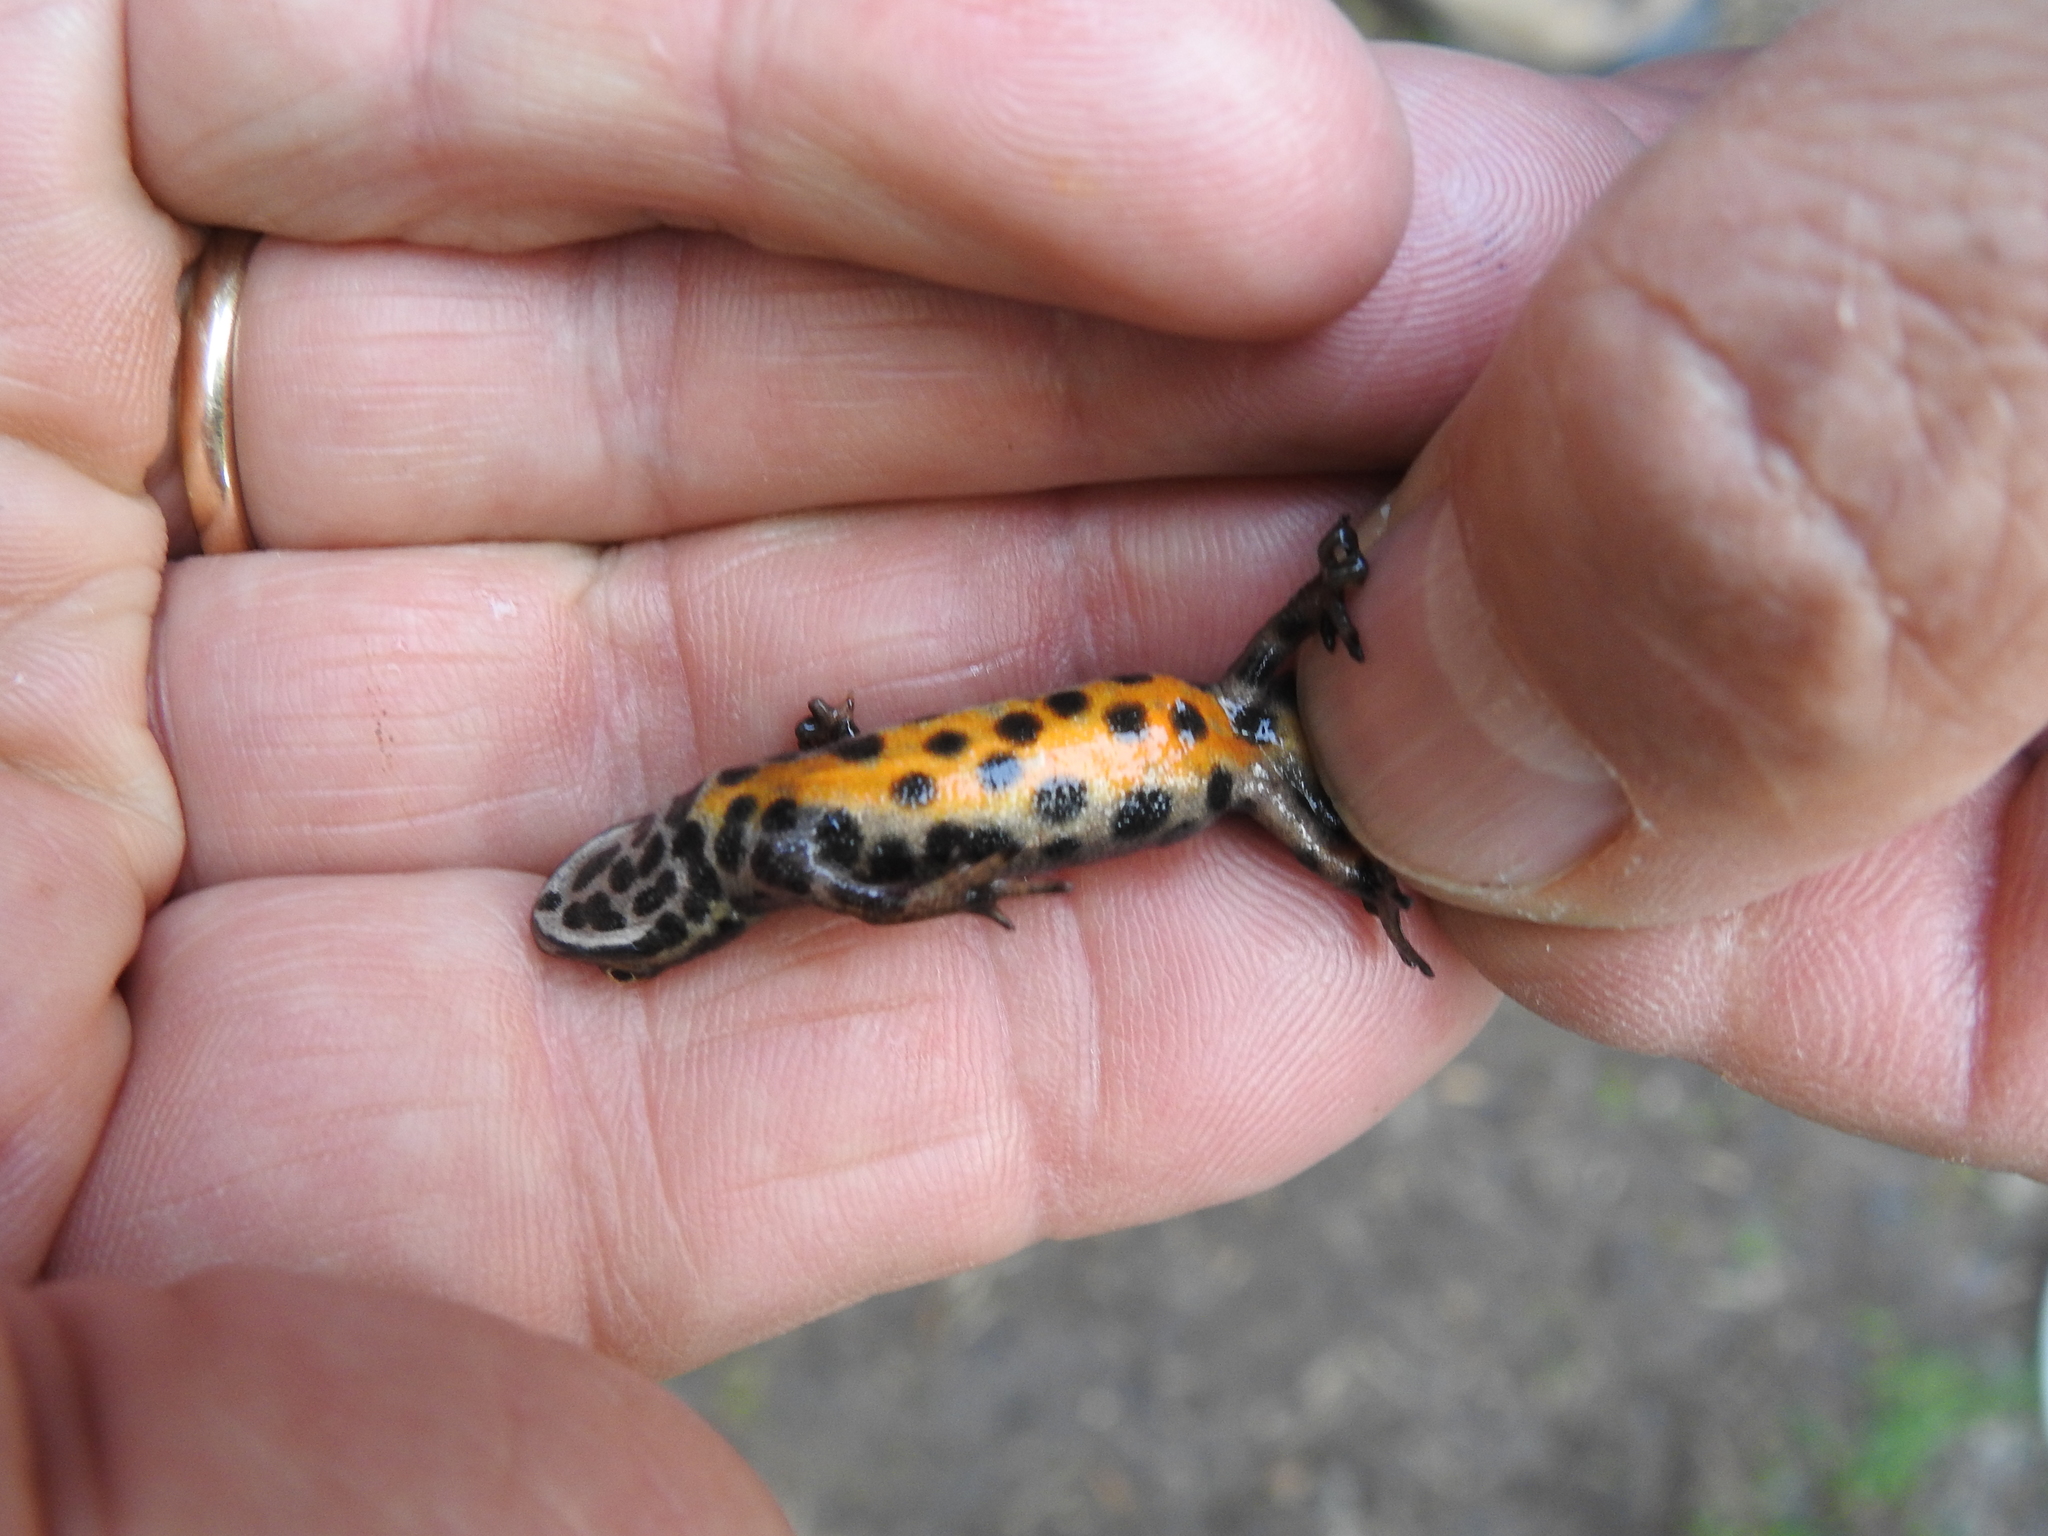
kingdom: Animalia
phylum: Chordata
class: Amphibia
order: Caudata
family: Salamandridae
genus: Lissotriton
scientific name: Lissotriton vulgaris
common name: Smooth newt
